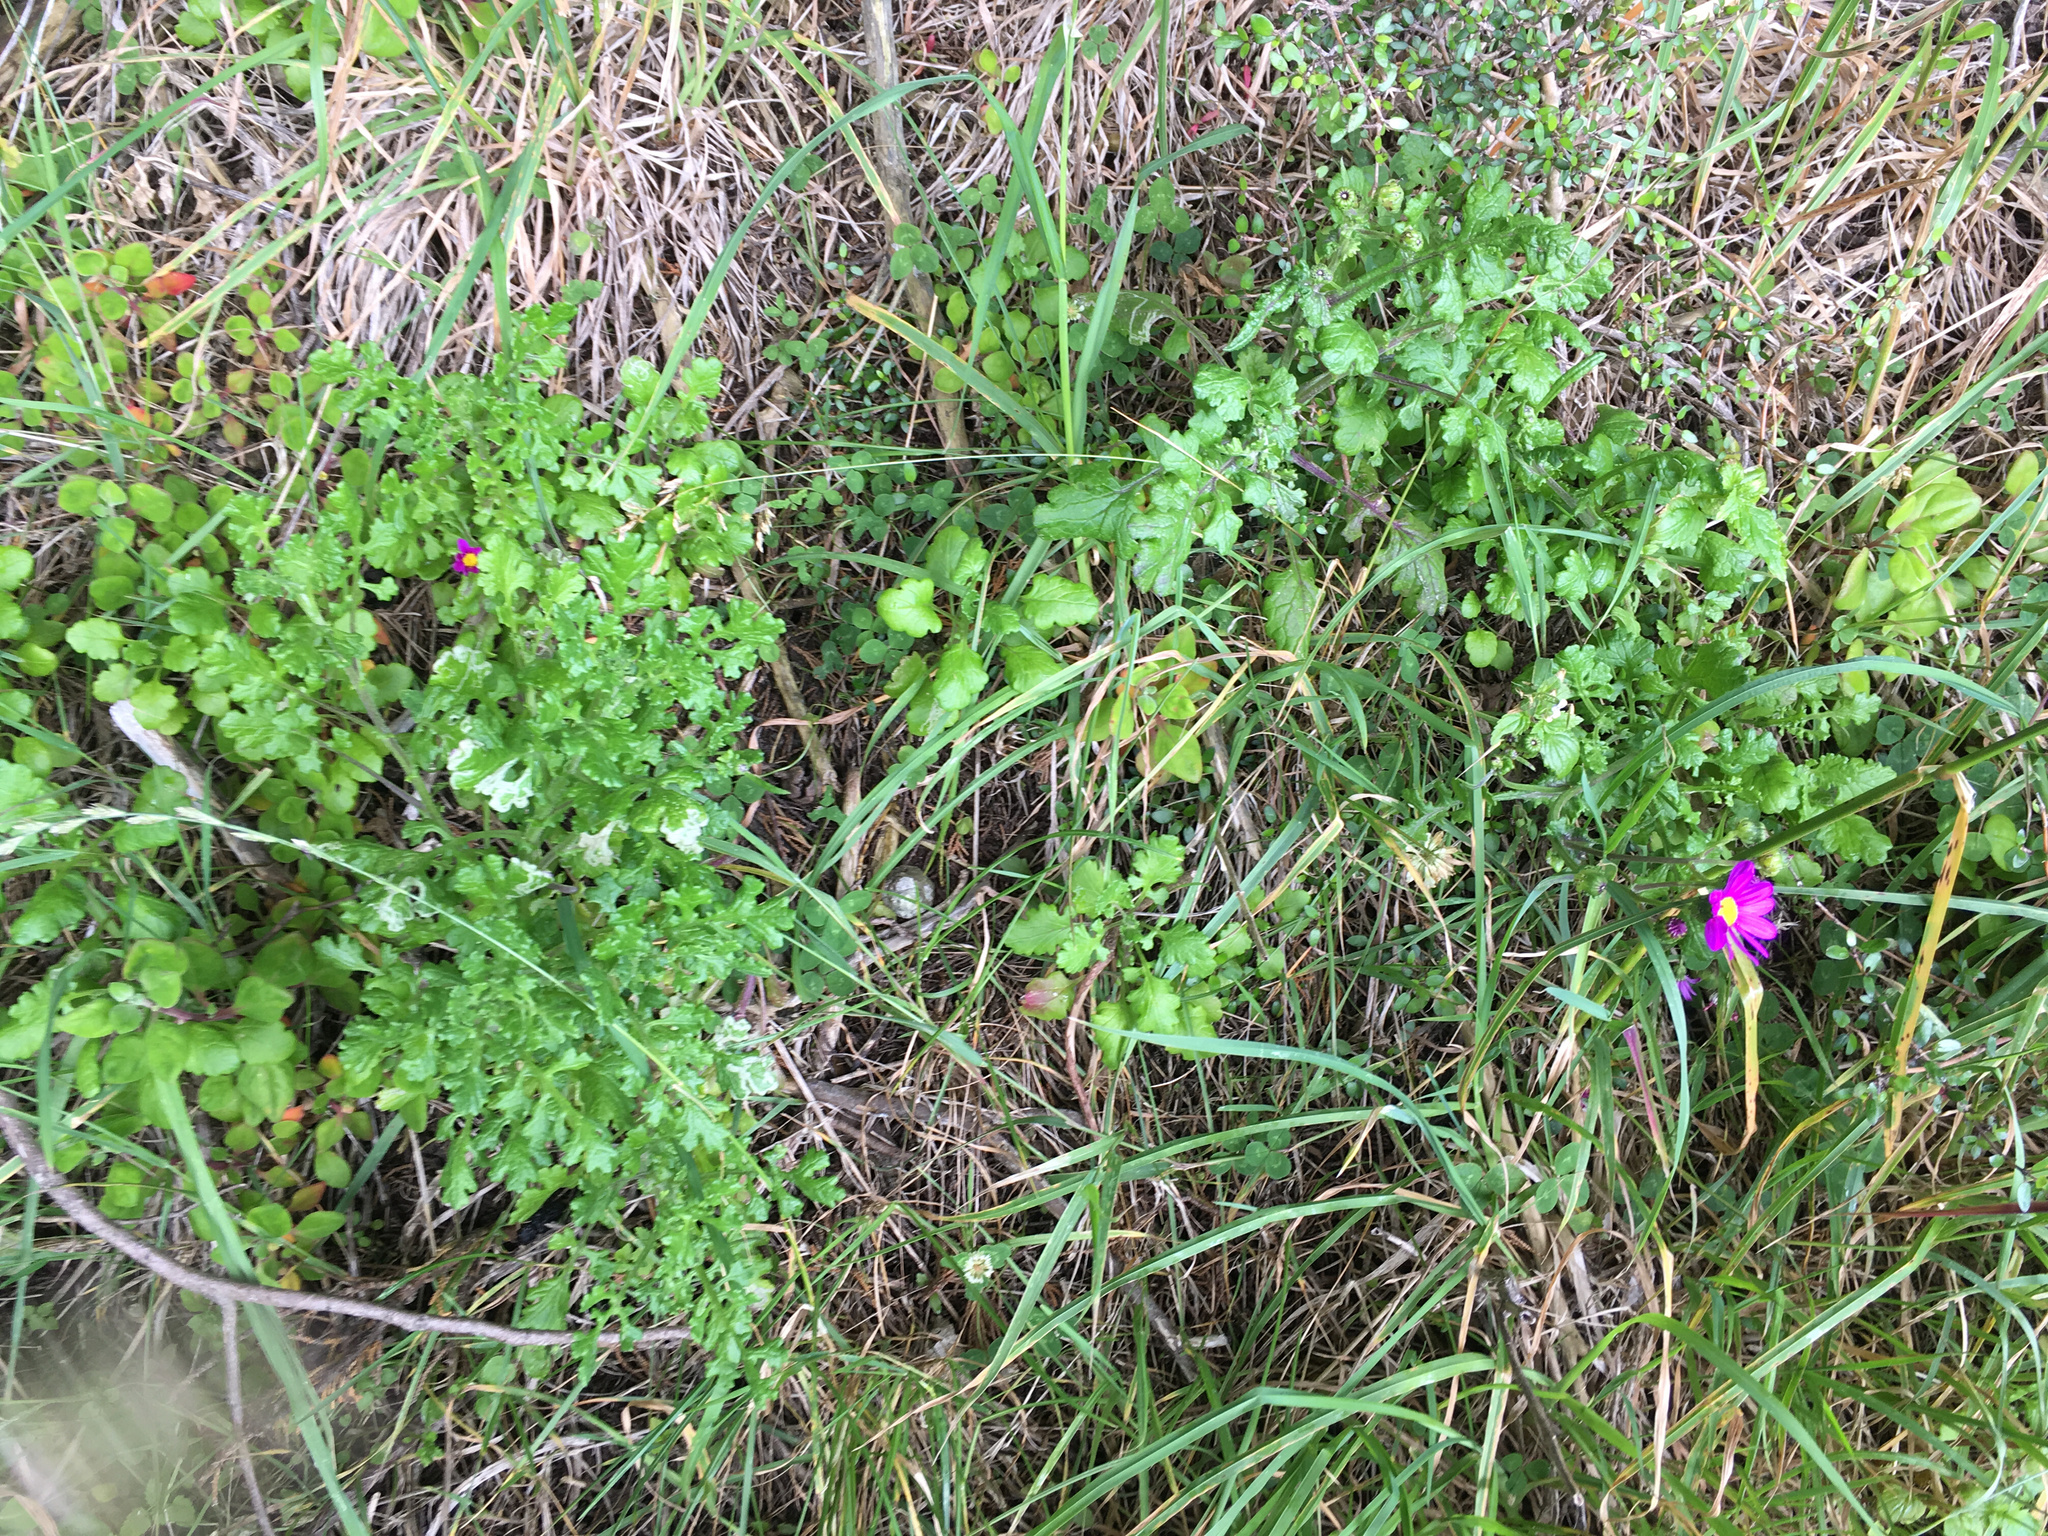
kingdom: Plantae
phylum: Tracheophyta
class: Magnoliopsida
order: Asterales
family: Asteraceae
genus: Senecio
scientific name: Senecio elegans
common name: Purple groundsel
